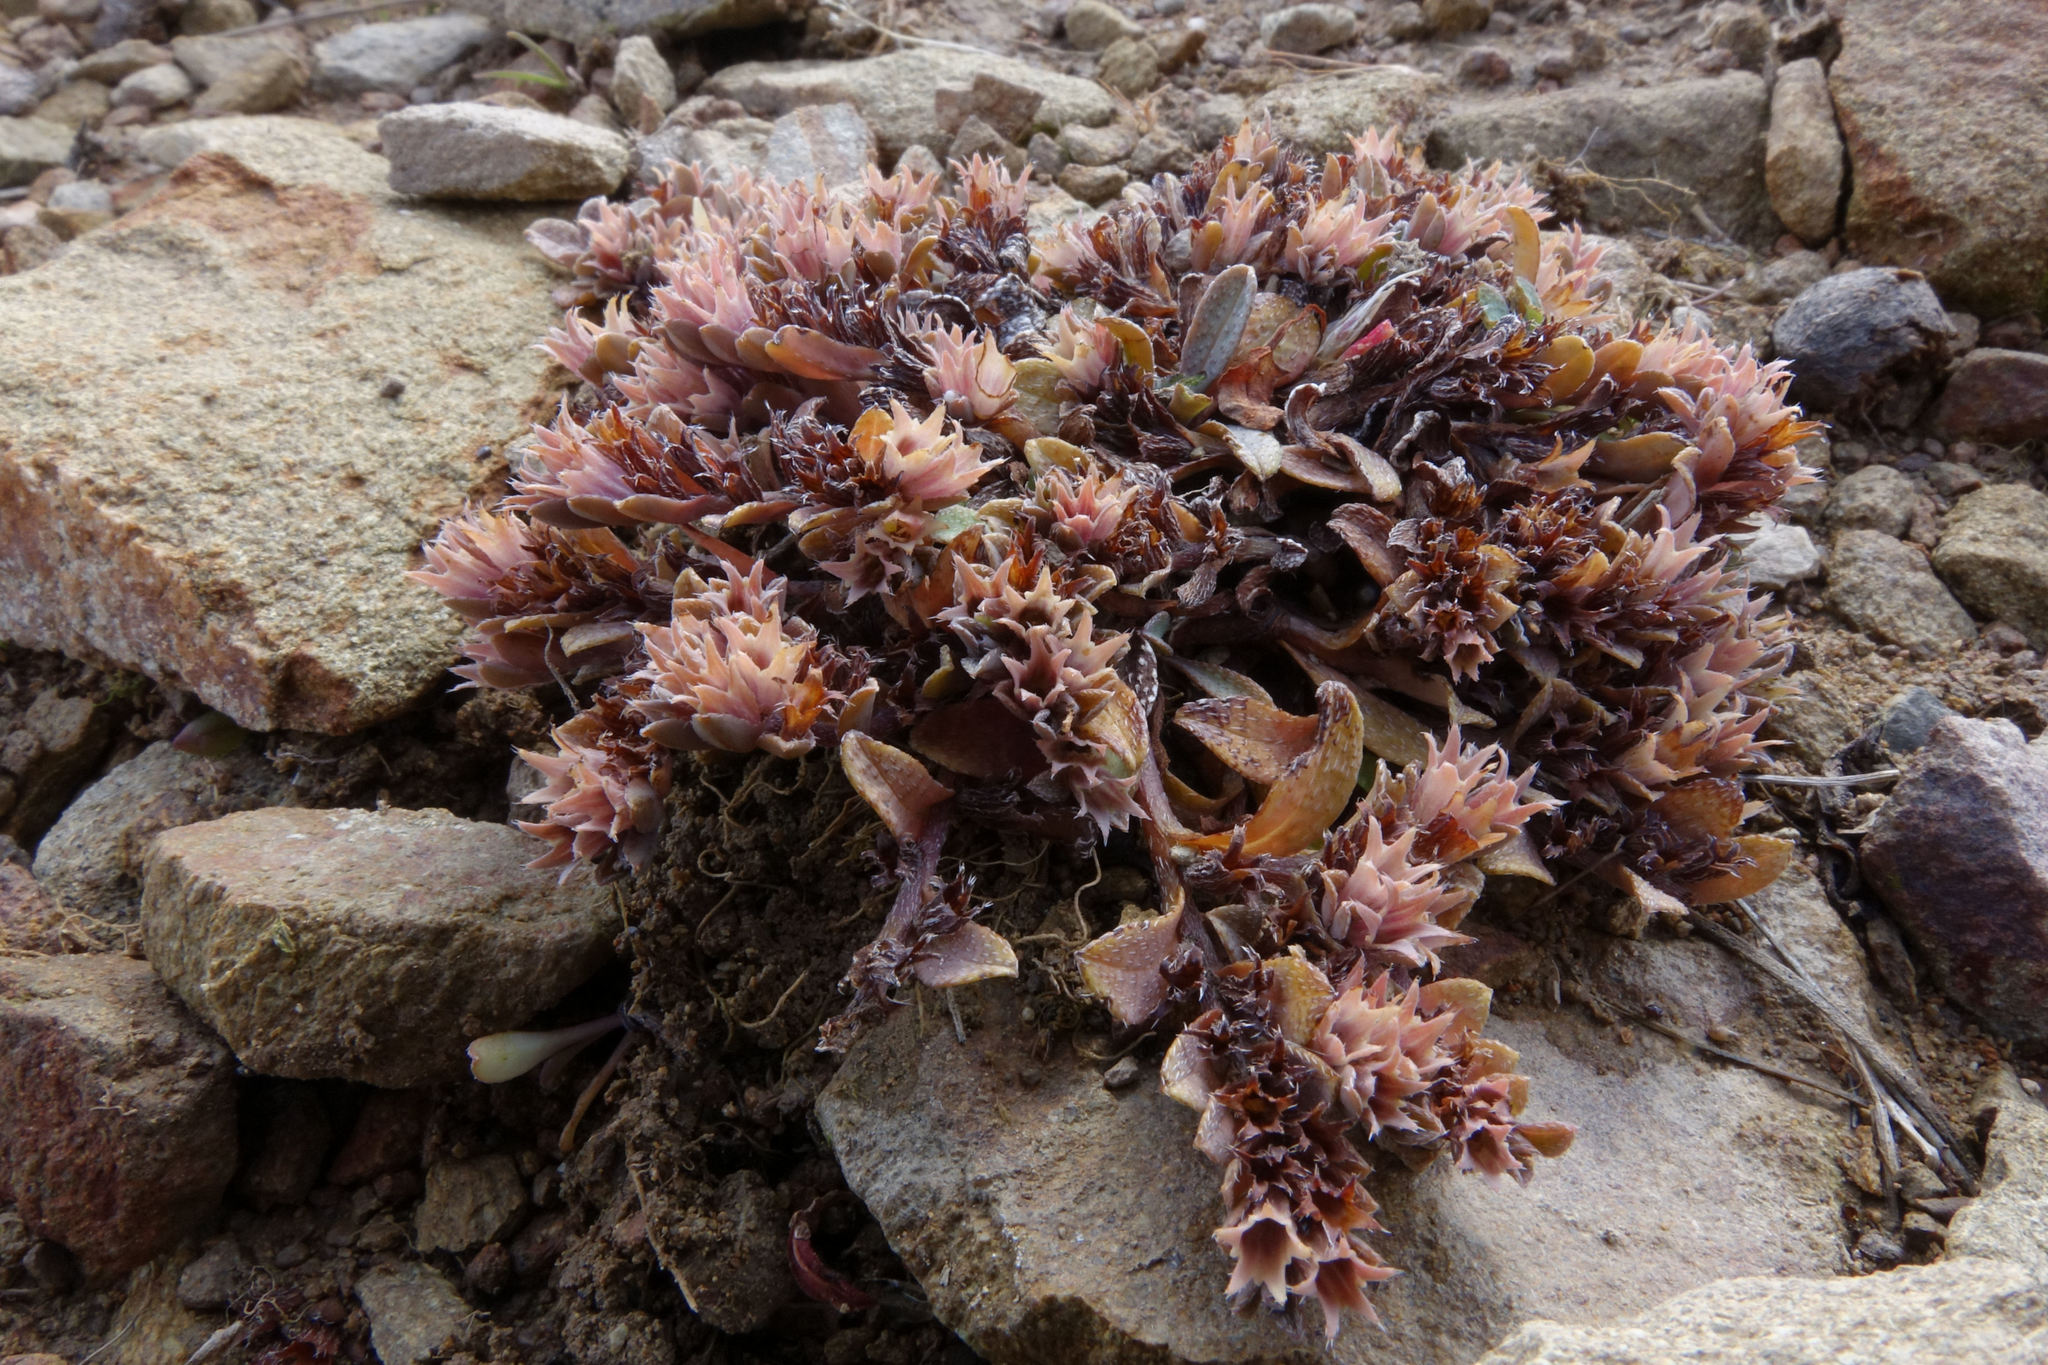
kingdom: Plantae
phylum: Tracheophyta
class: Magnoliopsida
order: Boraginales
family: Boraginaceae
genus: Myosotis
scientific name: Myosotis glauca
